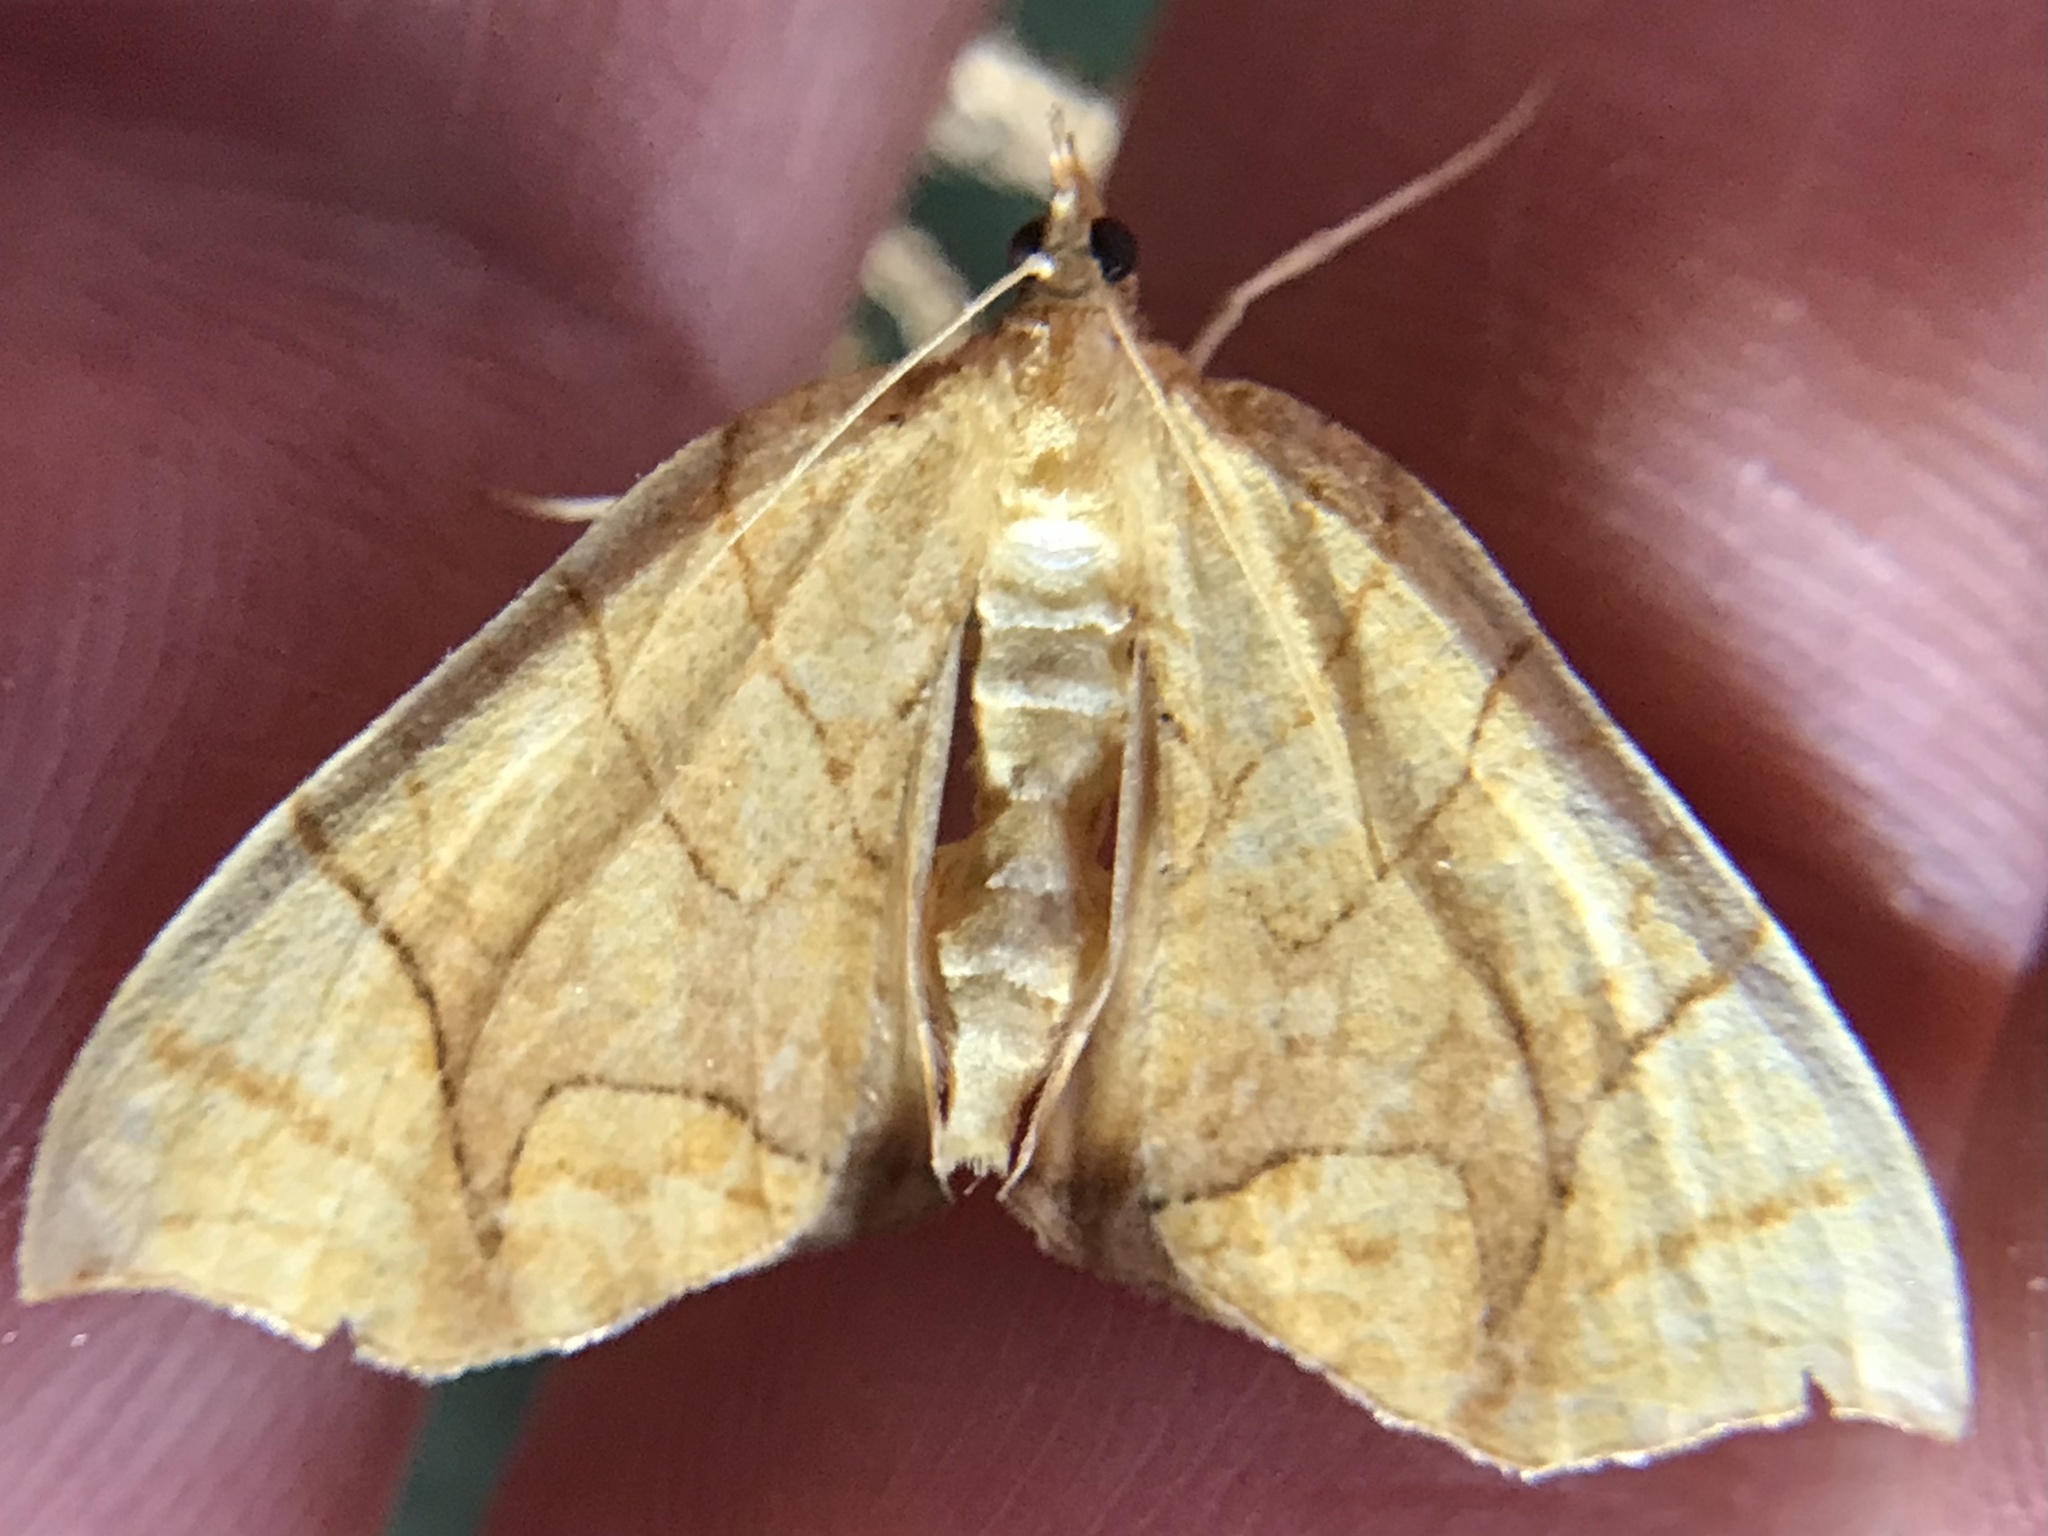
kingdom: Animalia
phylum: Arthropoda
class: Insecta
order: Lepidoptera
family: Geometridae
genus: Eulithis
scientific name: Eulithis
